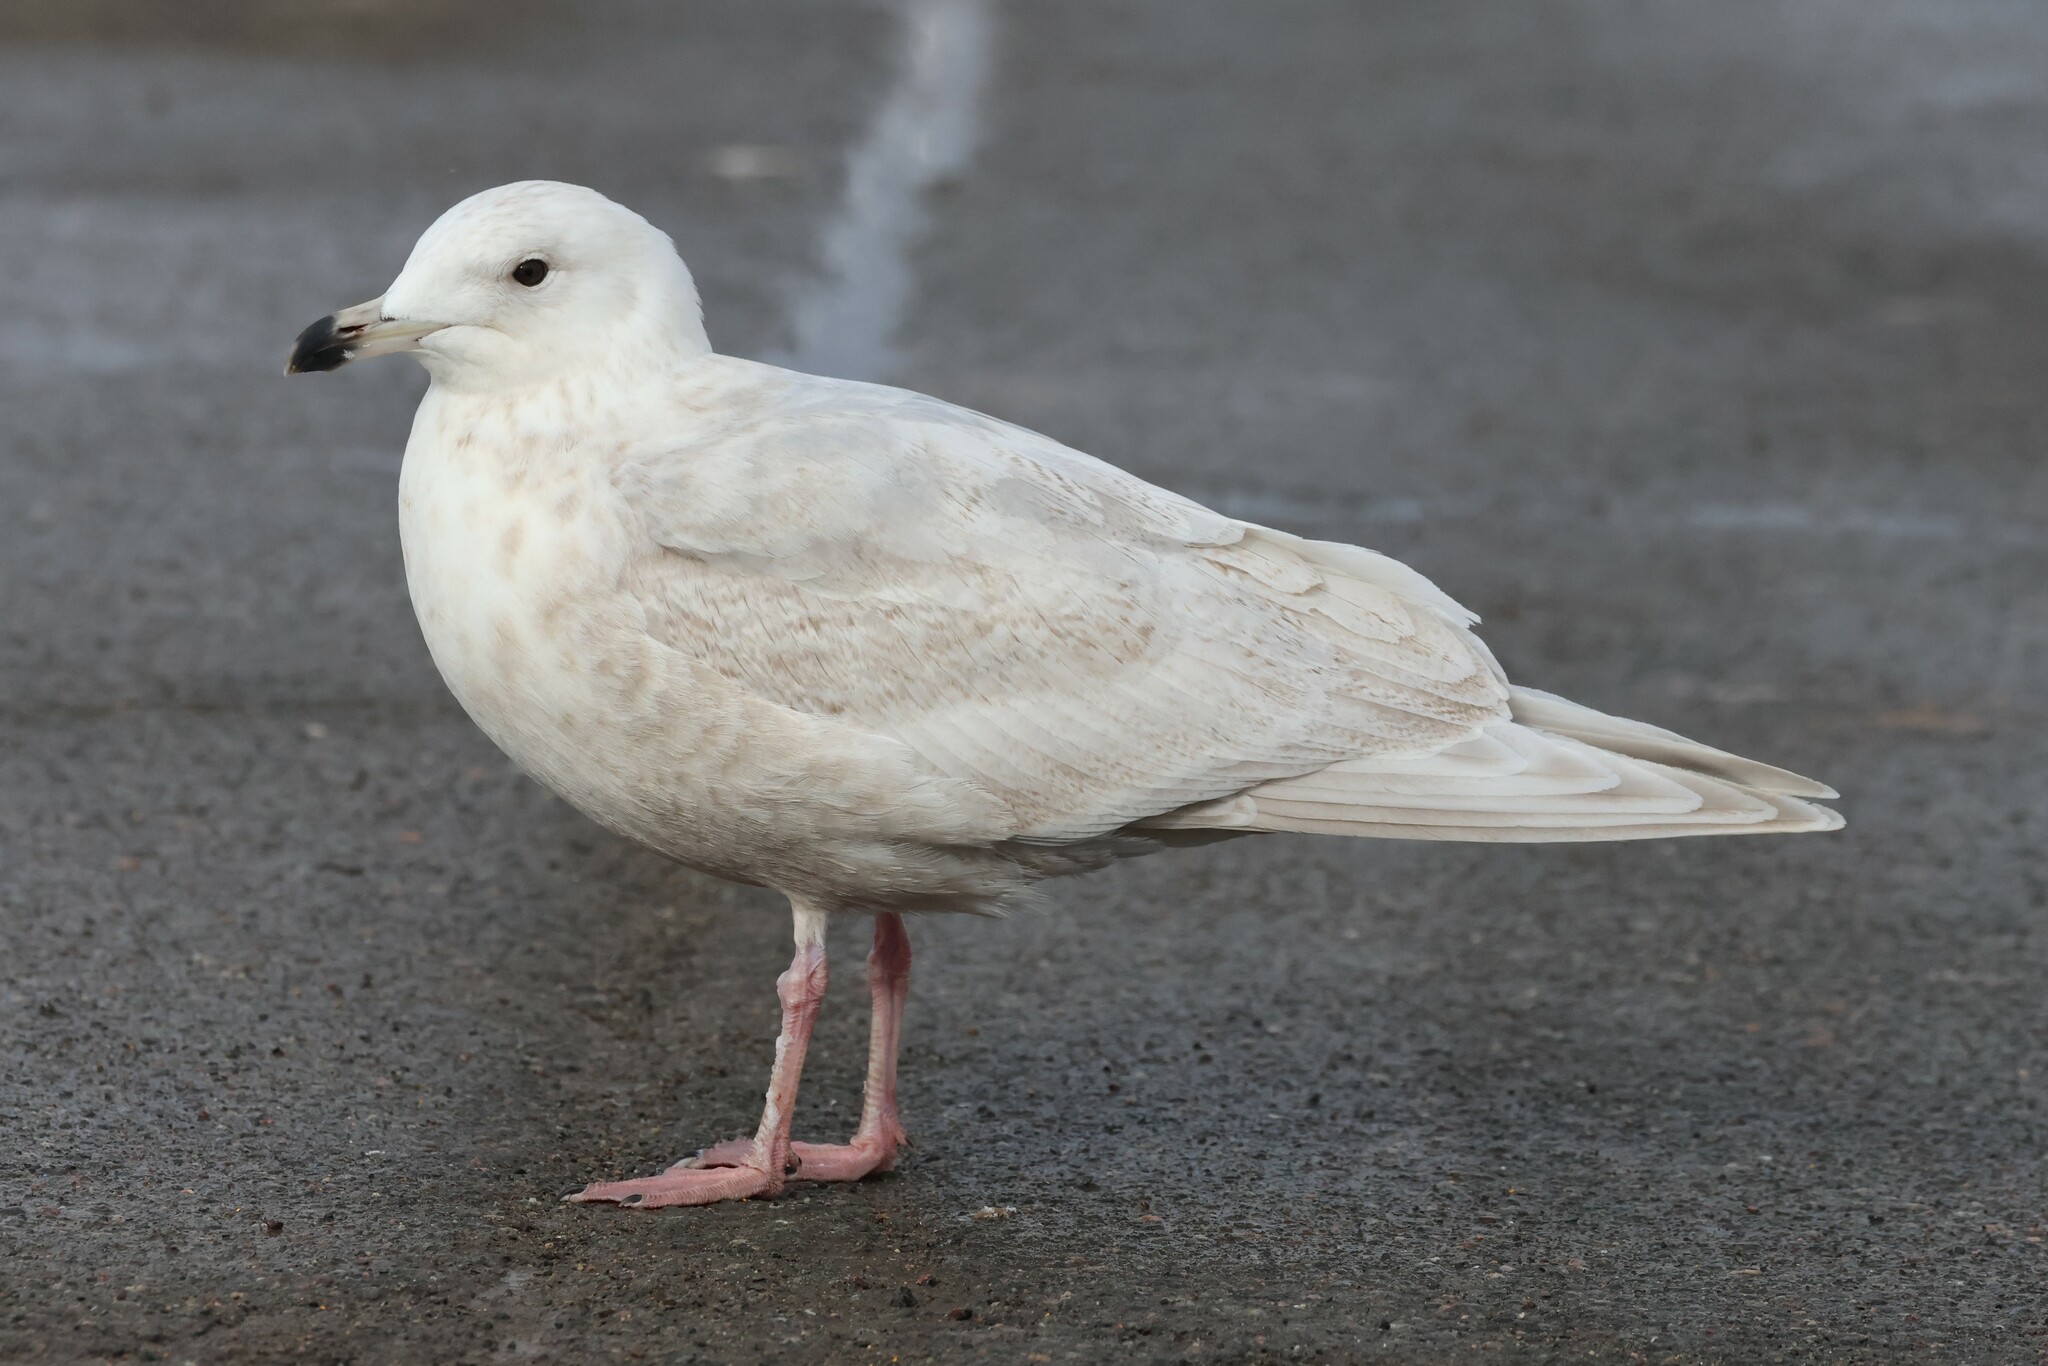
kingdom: Animalia
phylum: Chordata
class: Aves
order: Charadriiformes
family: Laridae
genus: Larus
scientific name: Larus glaucoides
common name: Iceland gull
